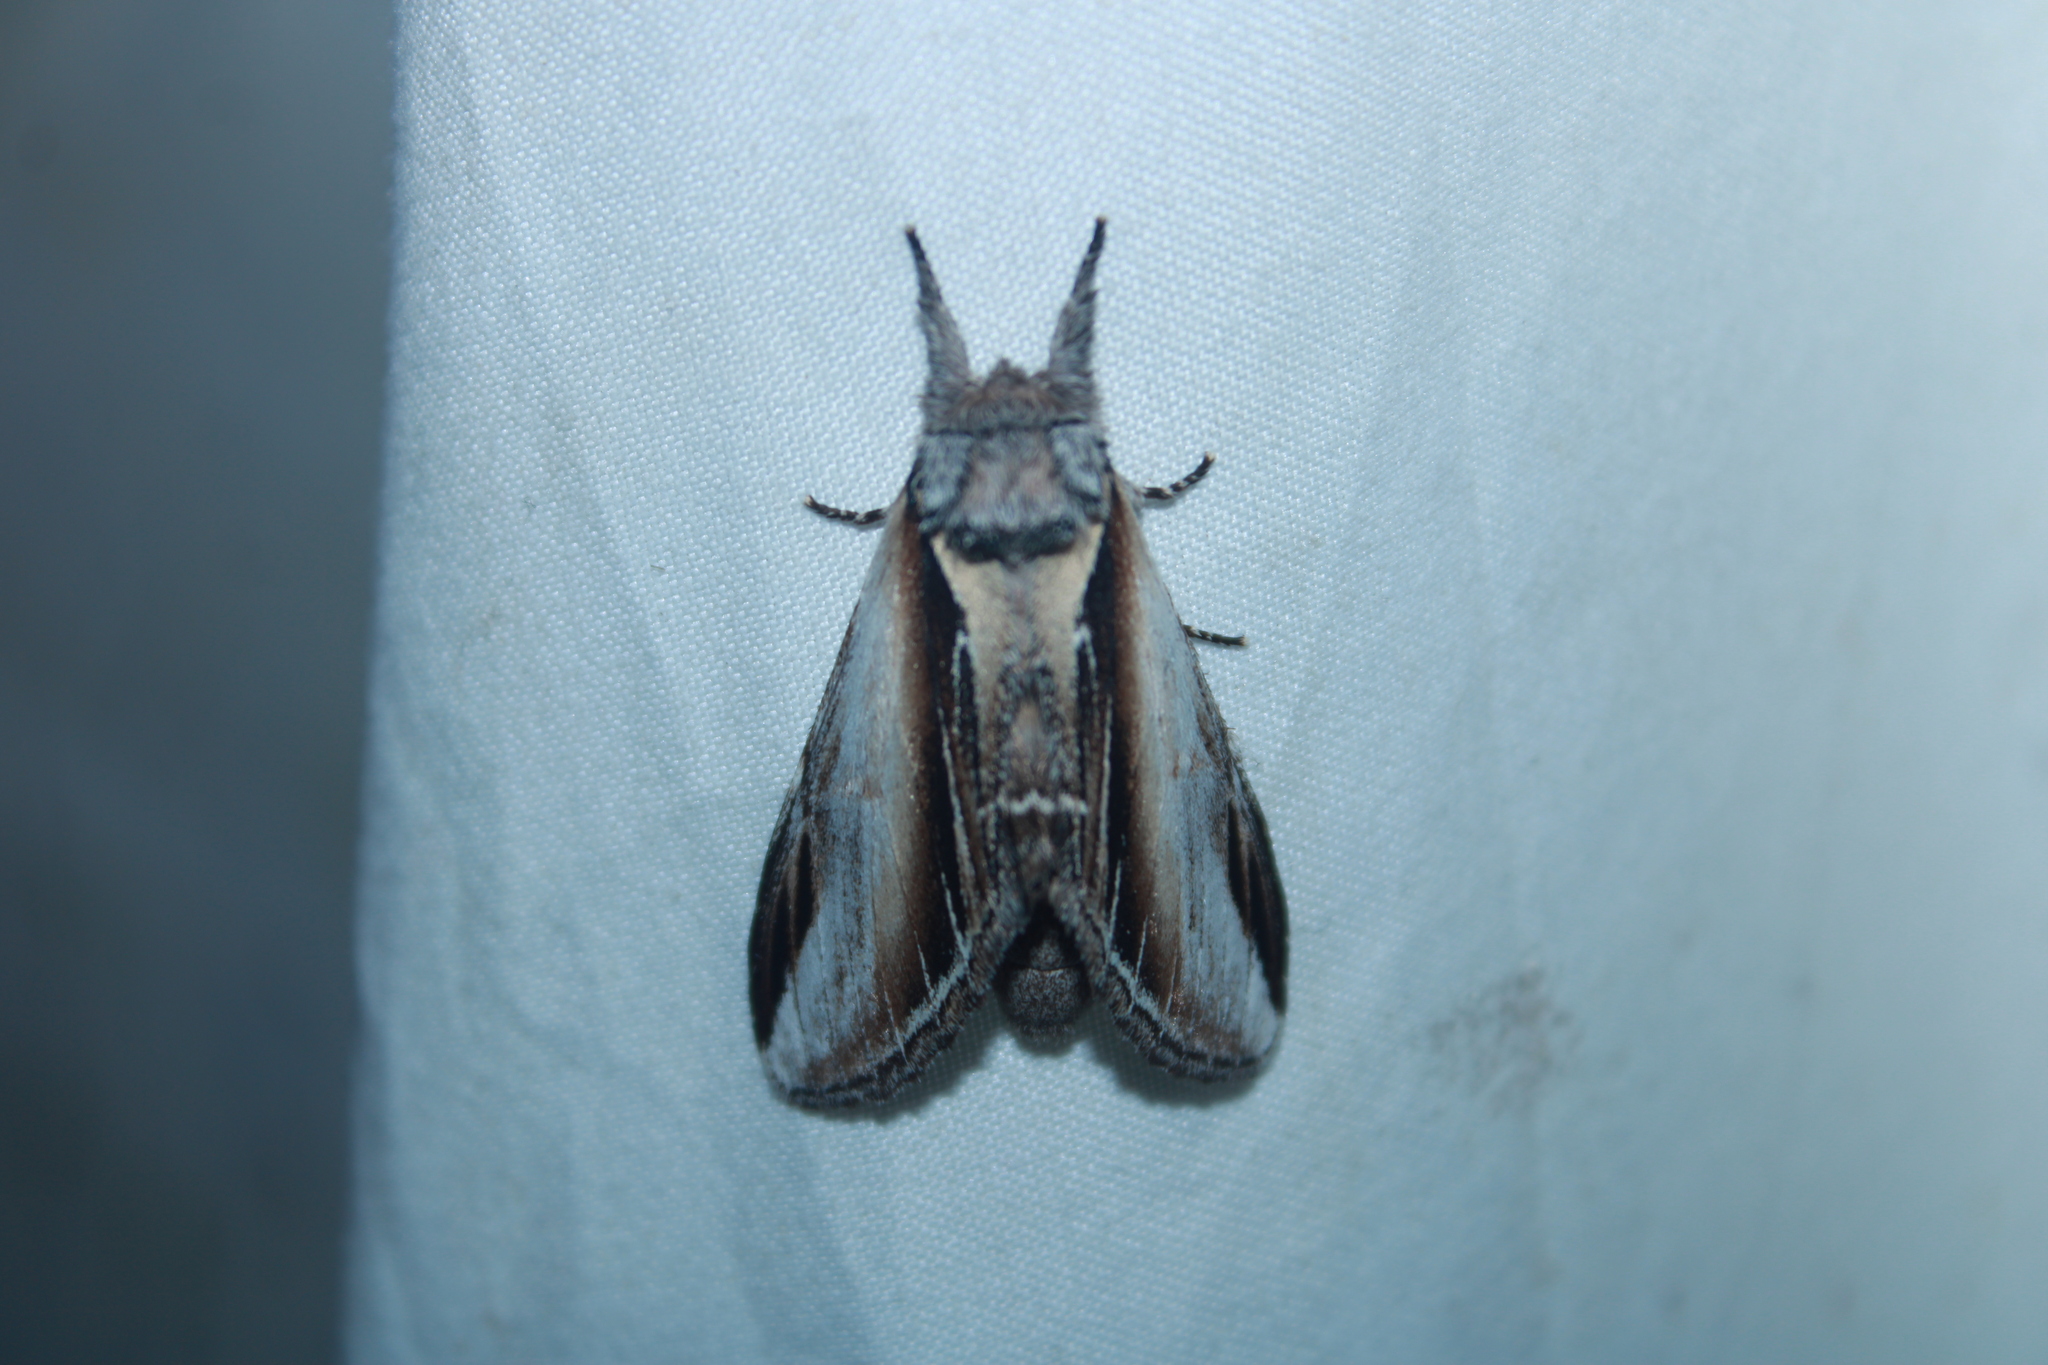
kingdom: Animalia
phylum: Arthropoda
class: Insecta
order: Lepidoptera
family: Notodontidae
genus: Pheosia
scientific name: Pheosia rimosa
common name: Black-rimmed prominent
